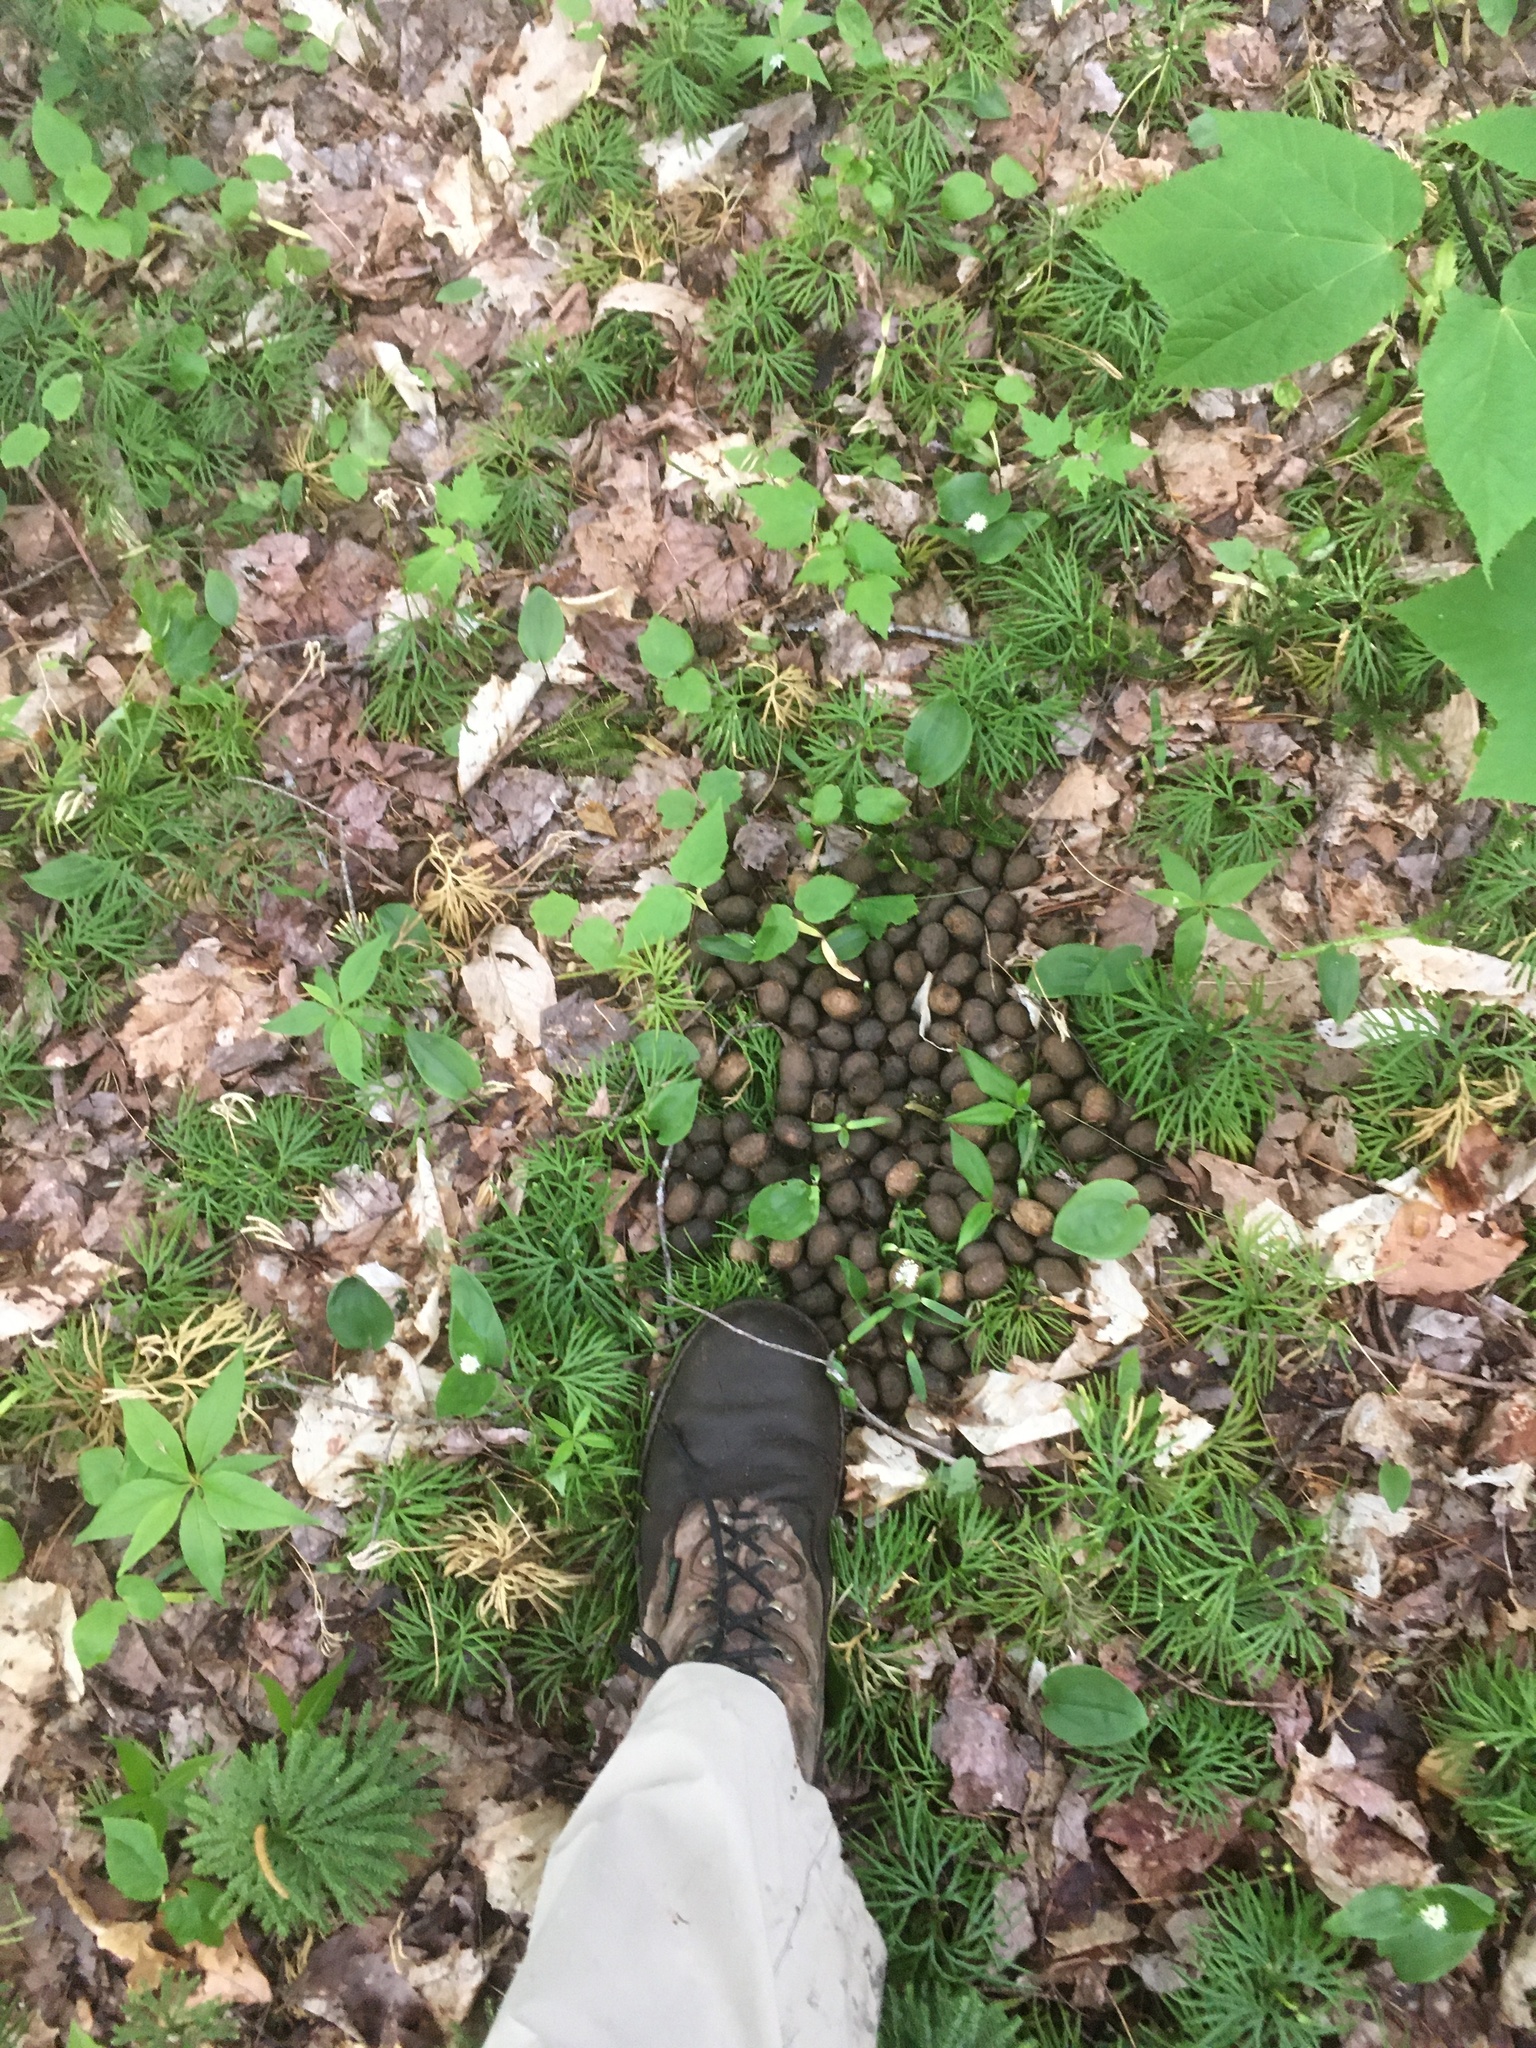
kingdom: Animalia
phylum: Chordata
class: Mammalia
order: Artiodactyla
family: Cervidae
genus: Alces
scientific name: Alces alces
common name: Moose
